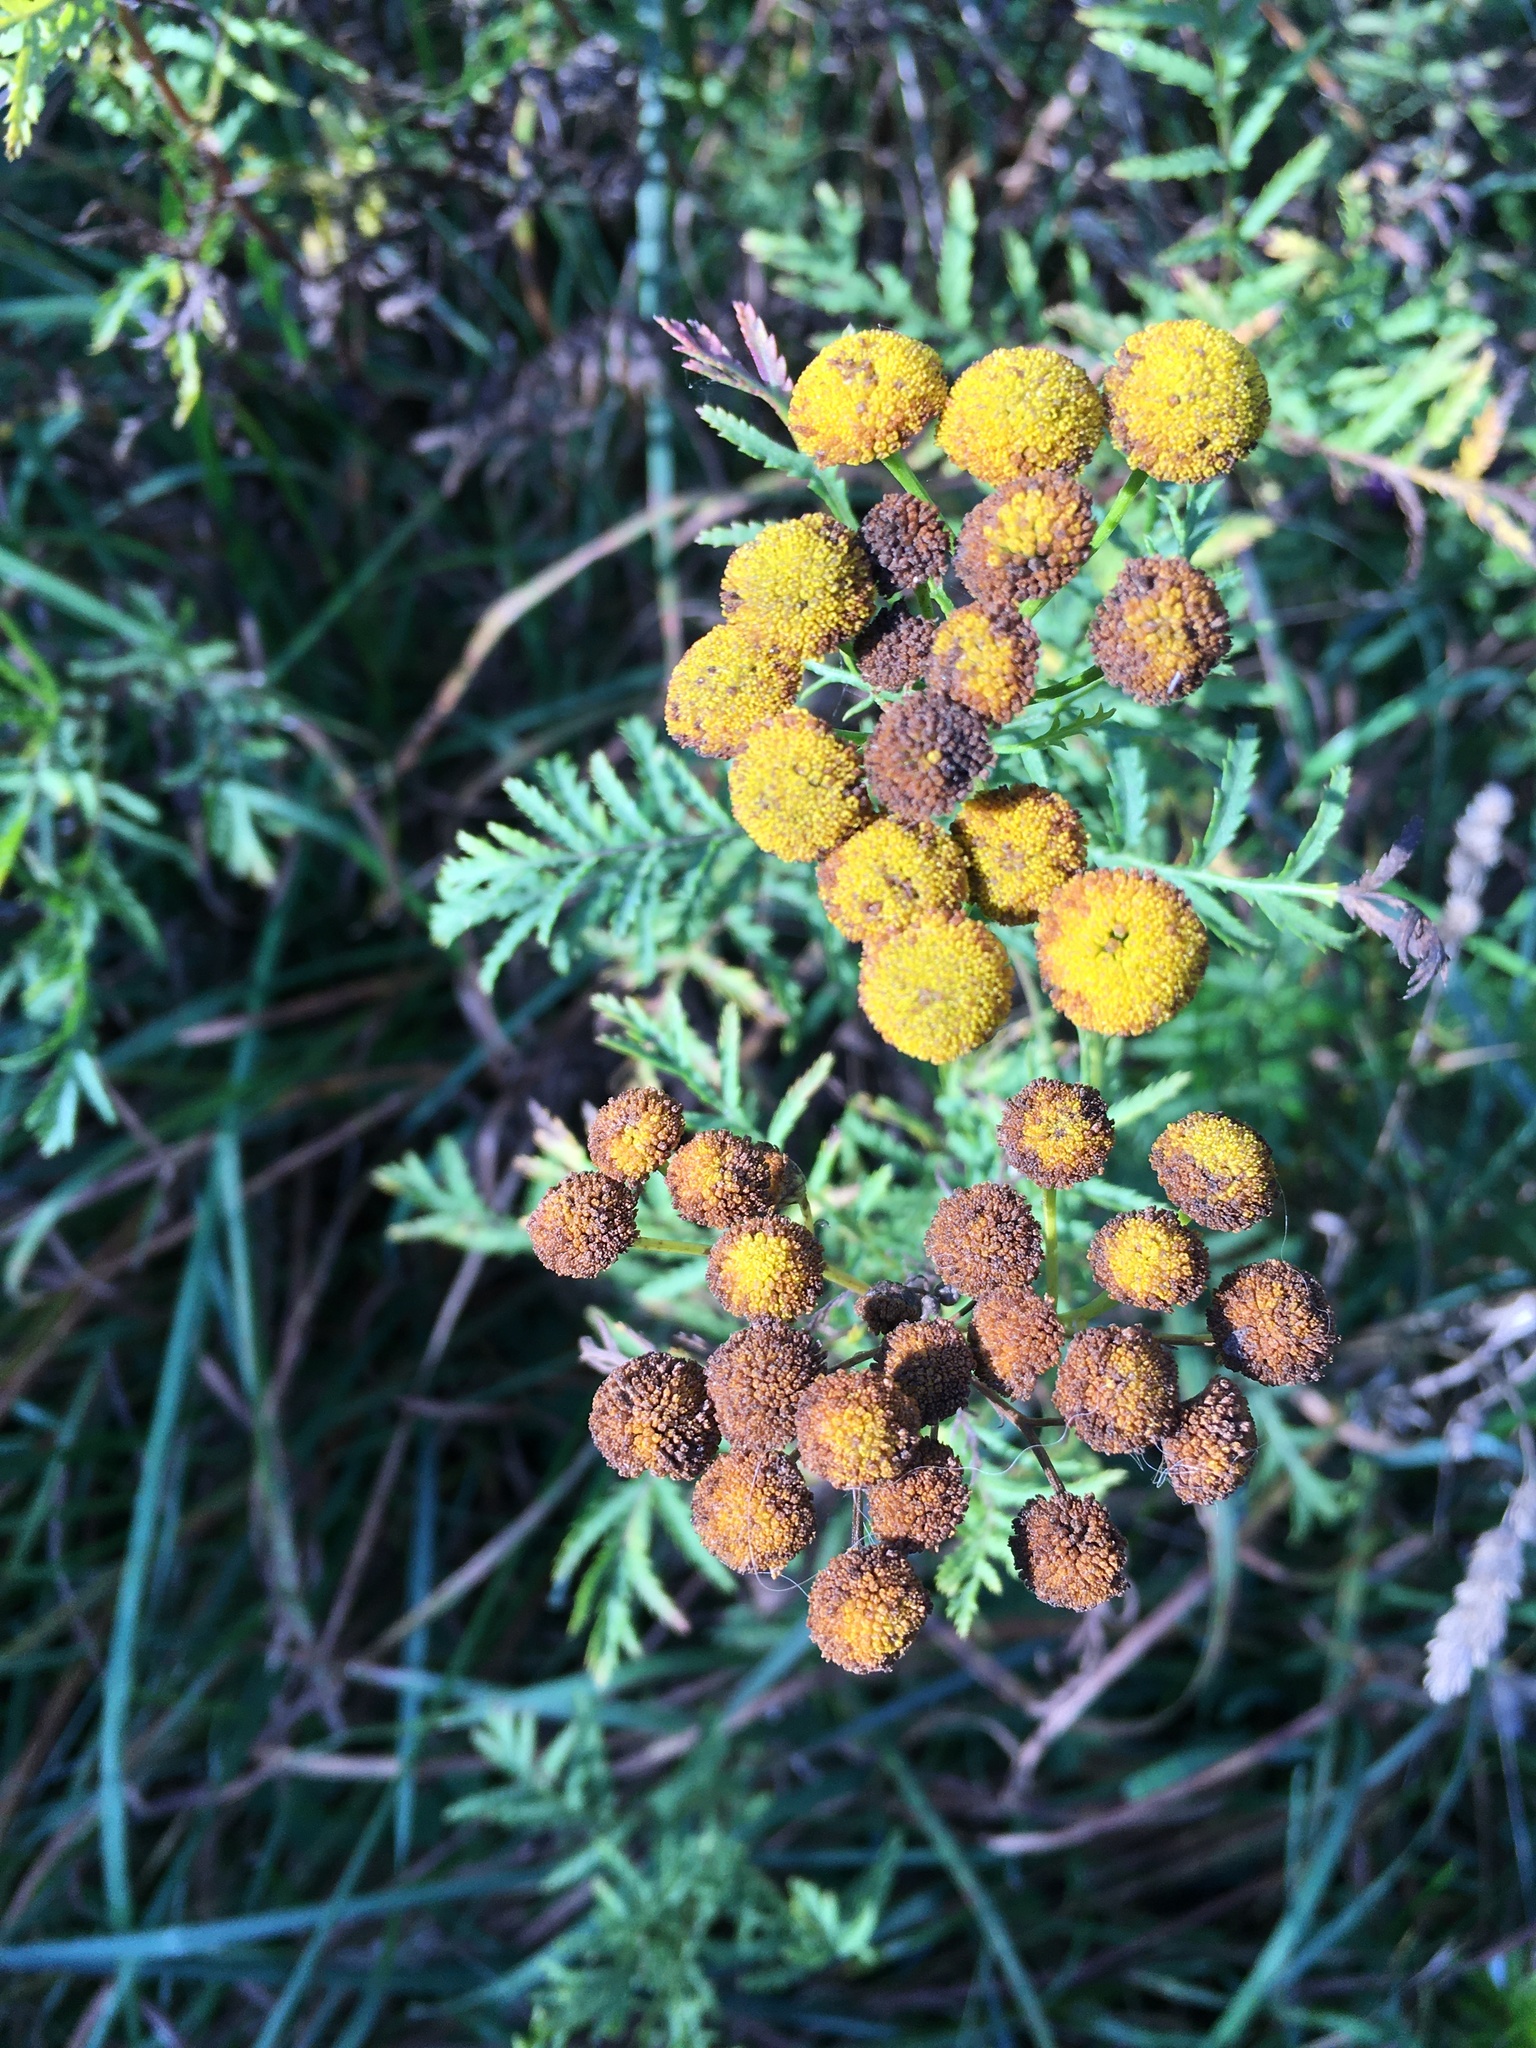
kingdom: Plantae
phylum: Tracheophyta
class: Magnoliopsida
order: Asterales
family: Asteraceae
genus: Tanacetum
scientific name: Tanacetum vulgare
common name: Common tansy
